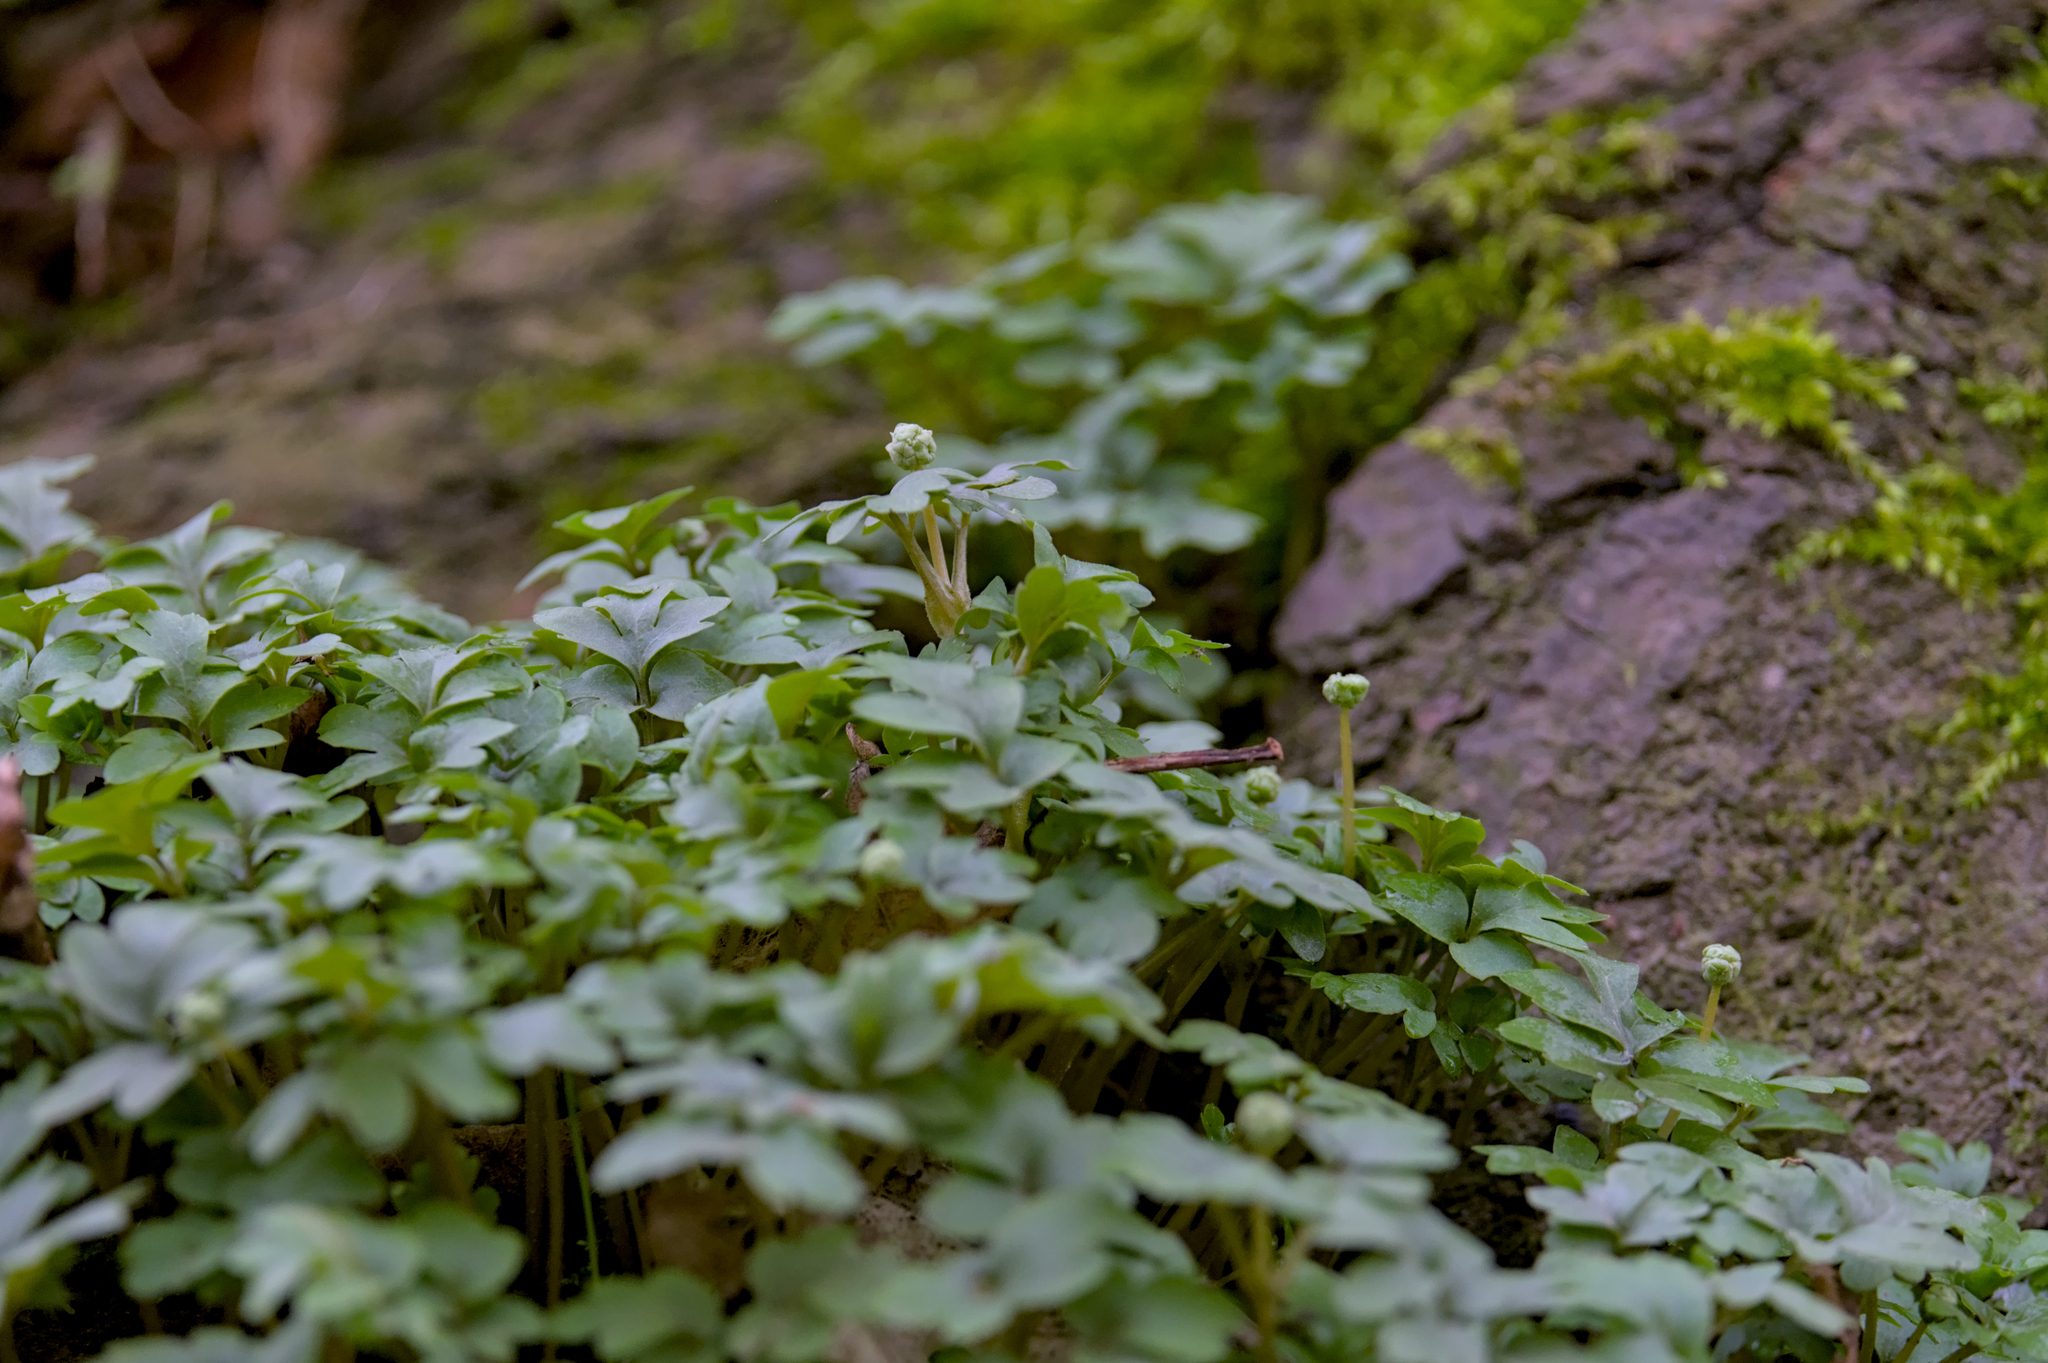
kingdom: Plantae
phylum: Tracheophyta
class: Magnoliopsida
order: Dipsacales
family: Viburnaceae
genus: Adoxa
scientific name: Adoxa moschatellina
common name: Moschatel
